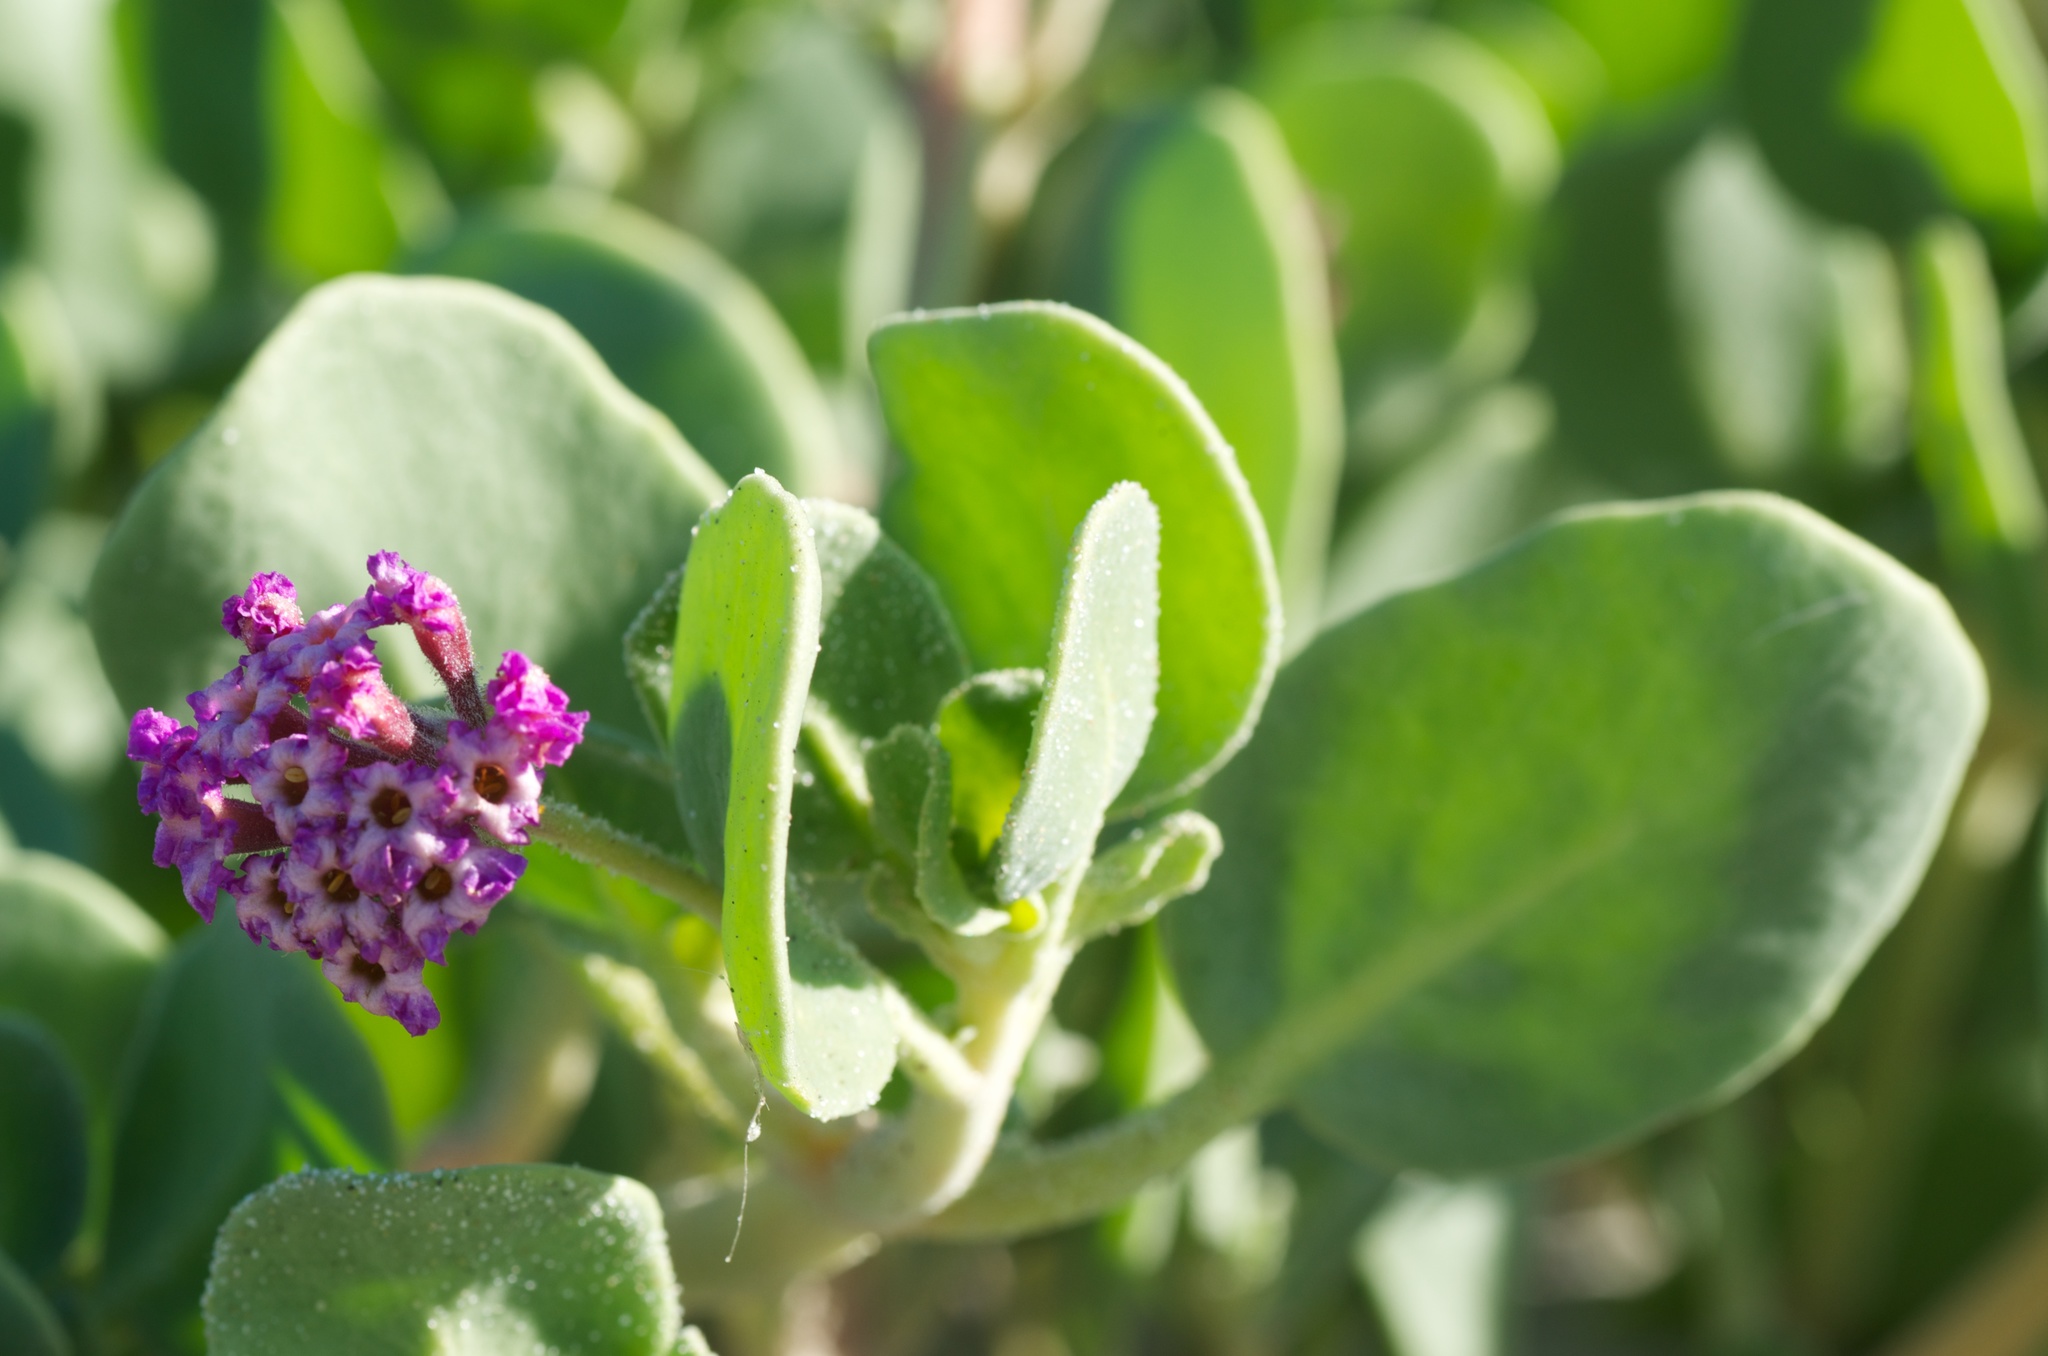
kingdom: Plantae
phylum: Tracheophyta
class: Magnoliopsida
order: Caryophyllales
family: Nyctaginaceae
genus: Abronia
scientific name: Abronia maritima
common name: Red sand-verbena
